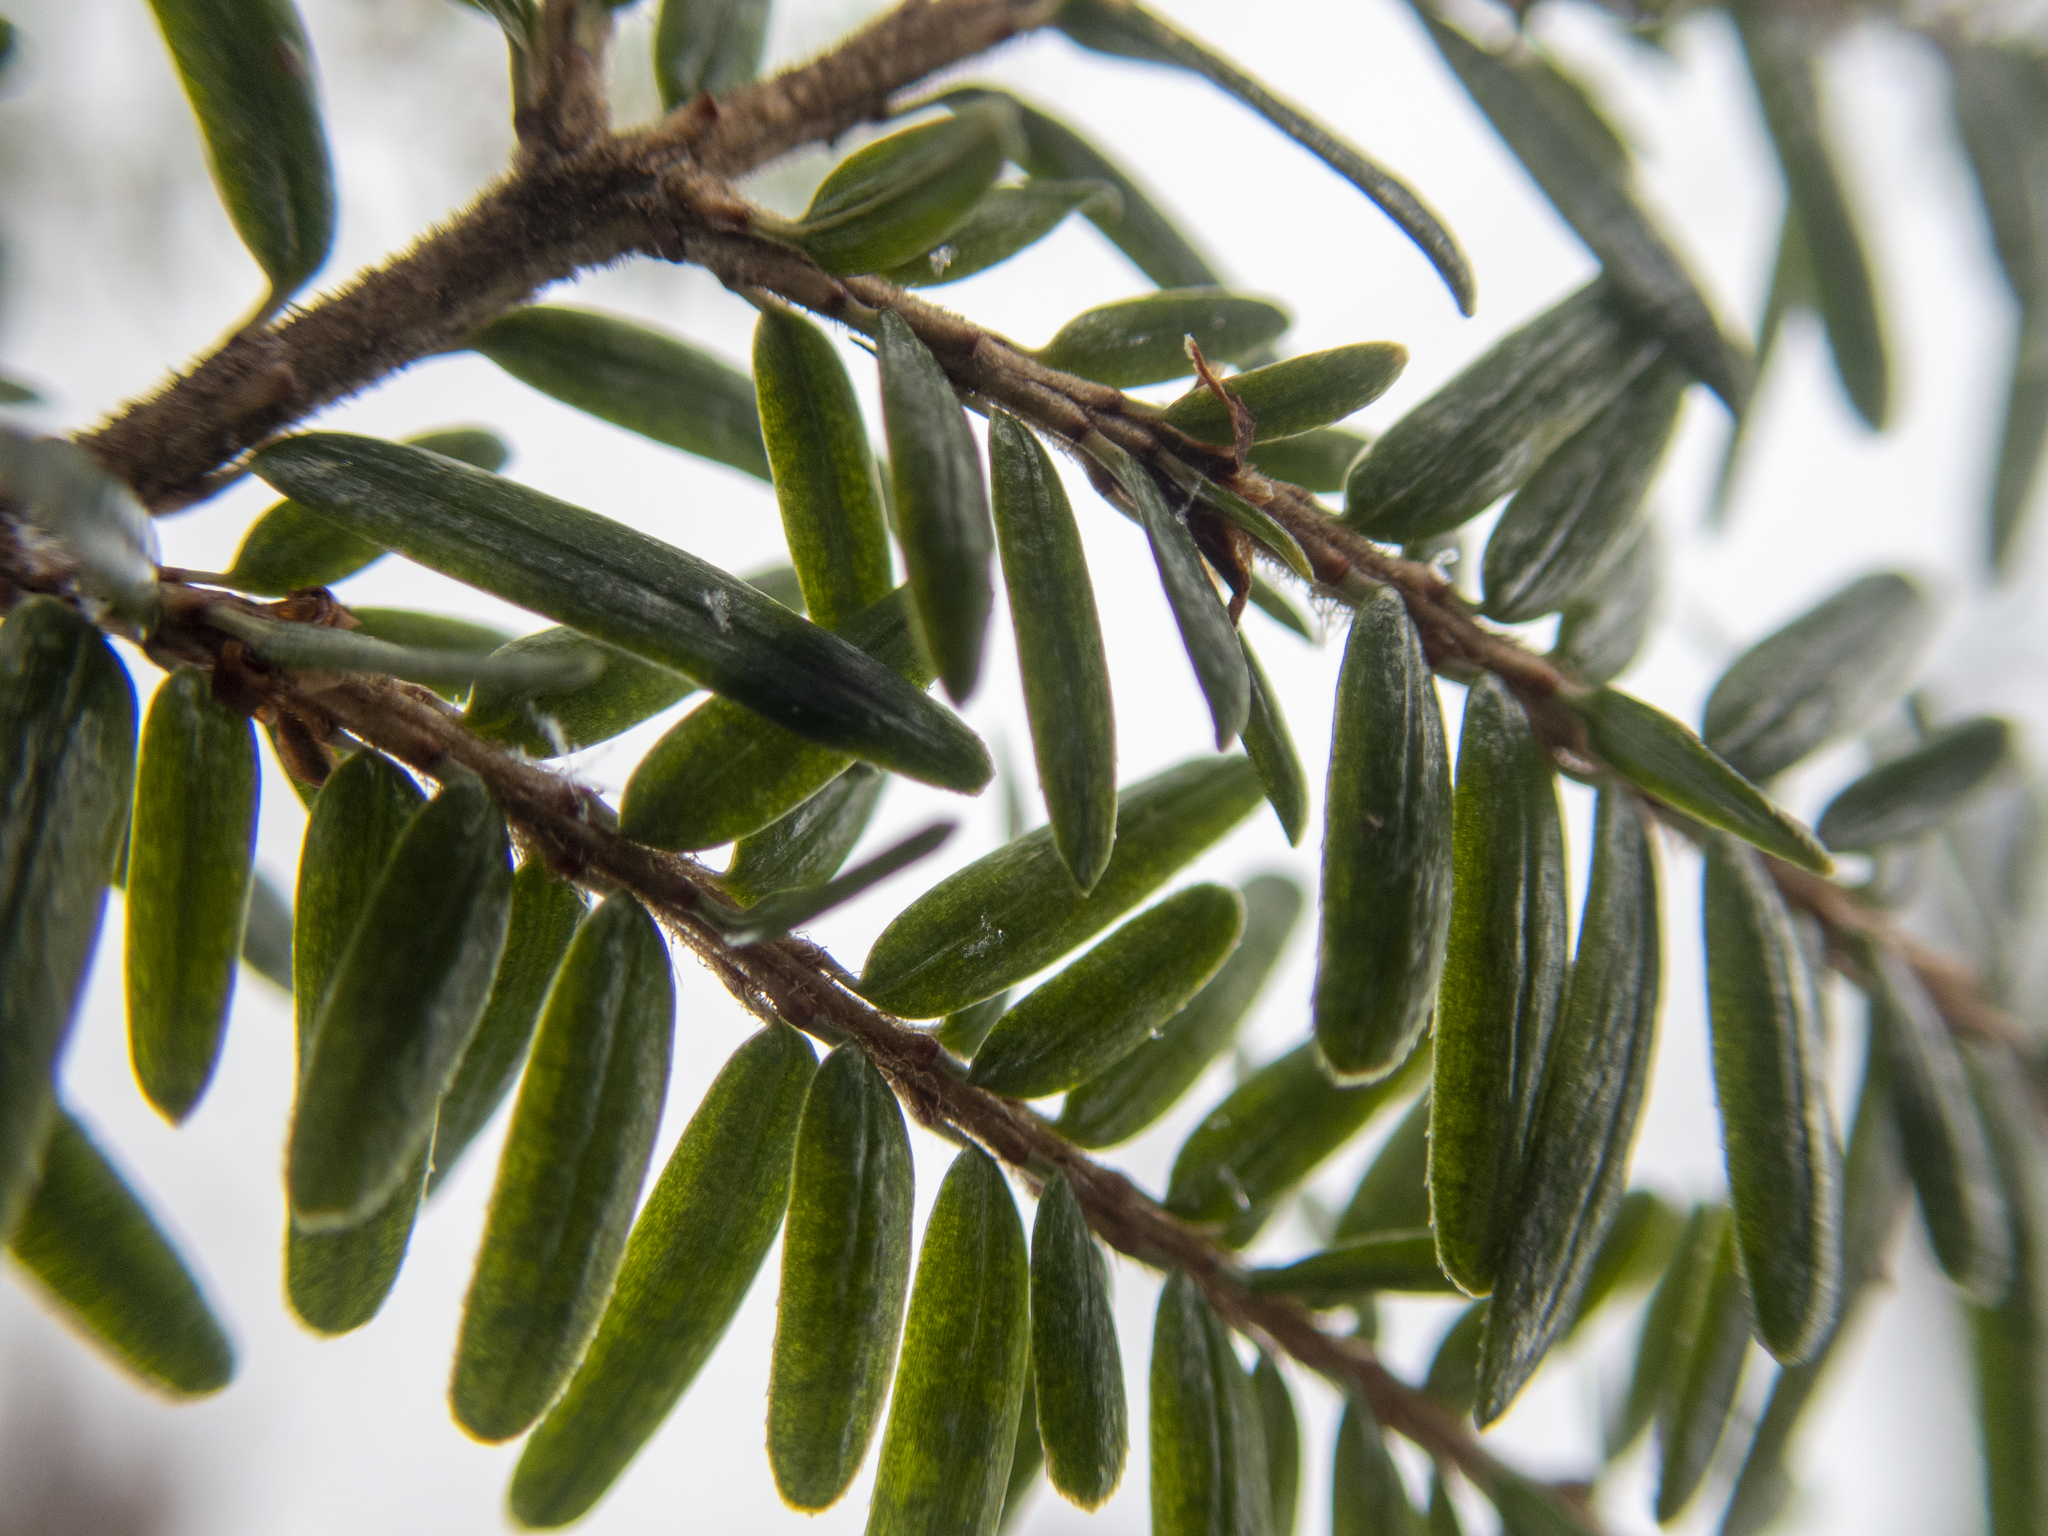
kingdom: Plantae
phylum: Tracheophyta
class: Pinopsida
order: Pinales
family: Pinaceae
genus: Tsuga
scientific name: Tsuga canadensis
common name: Eastern hemlock
